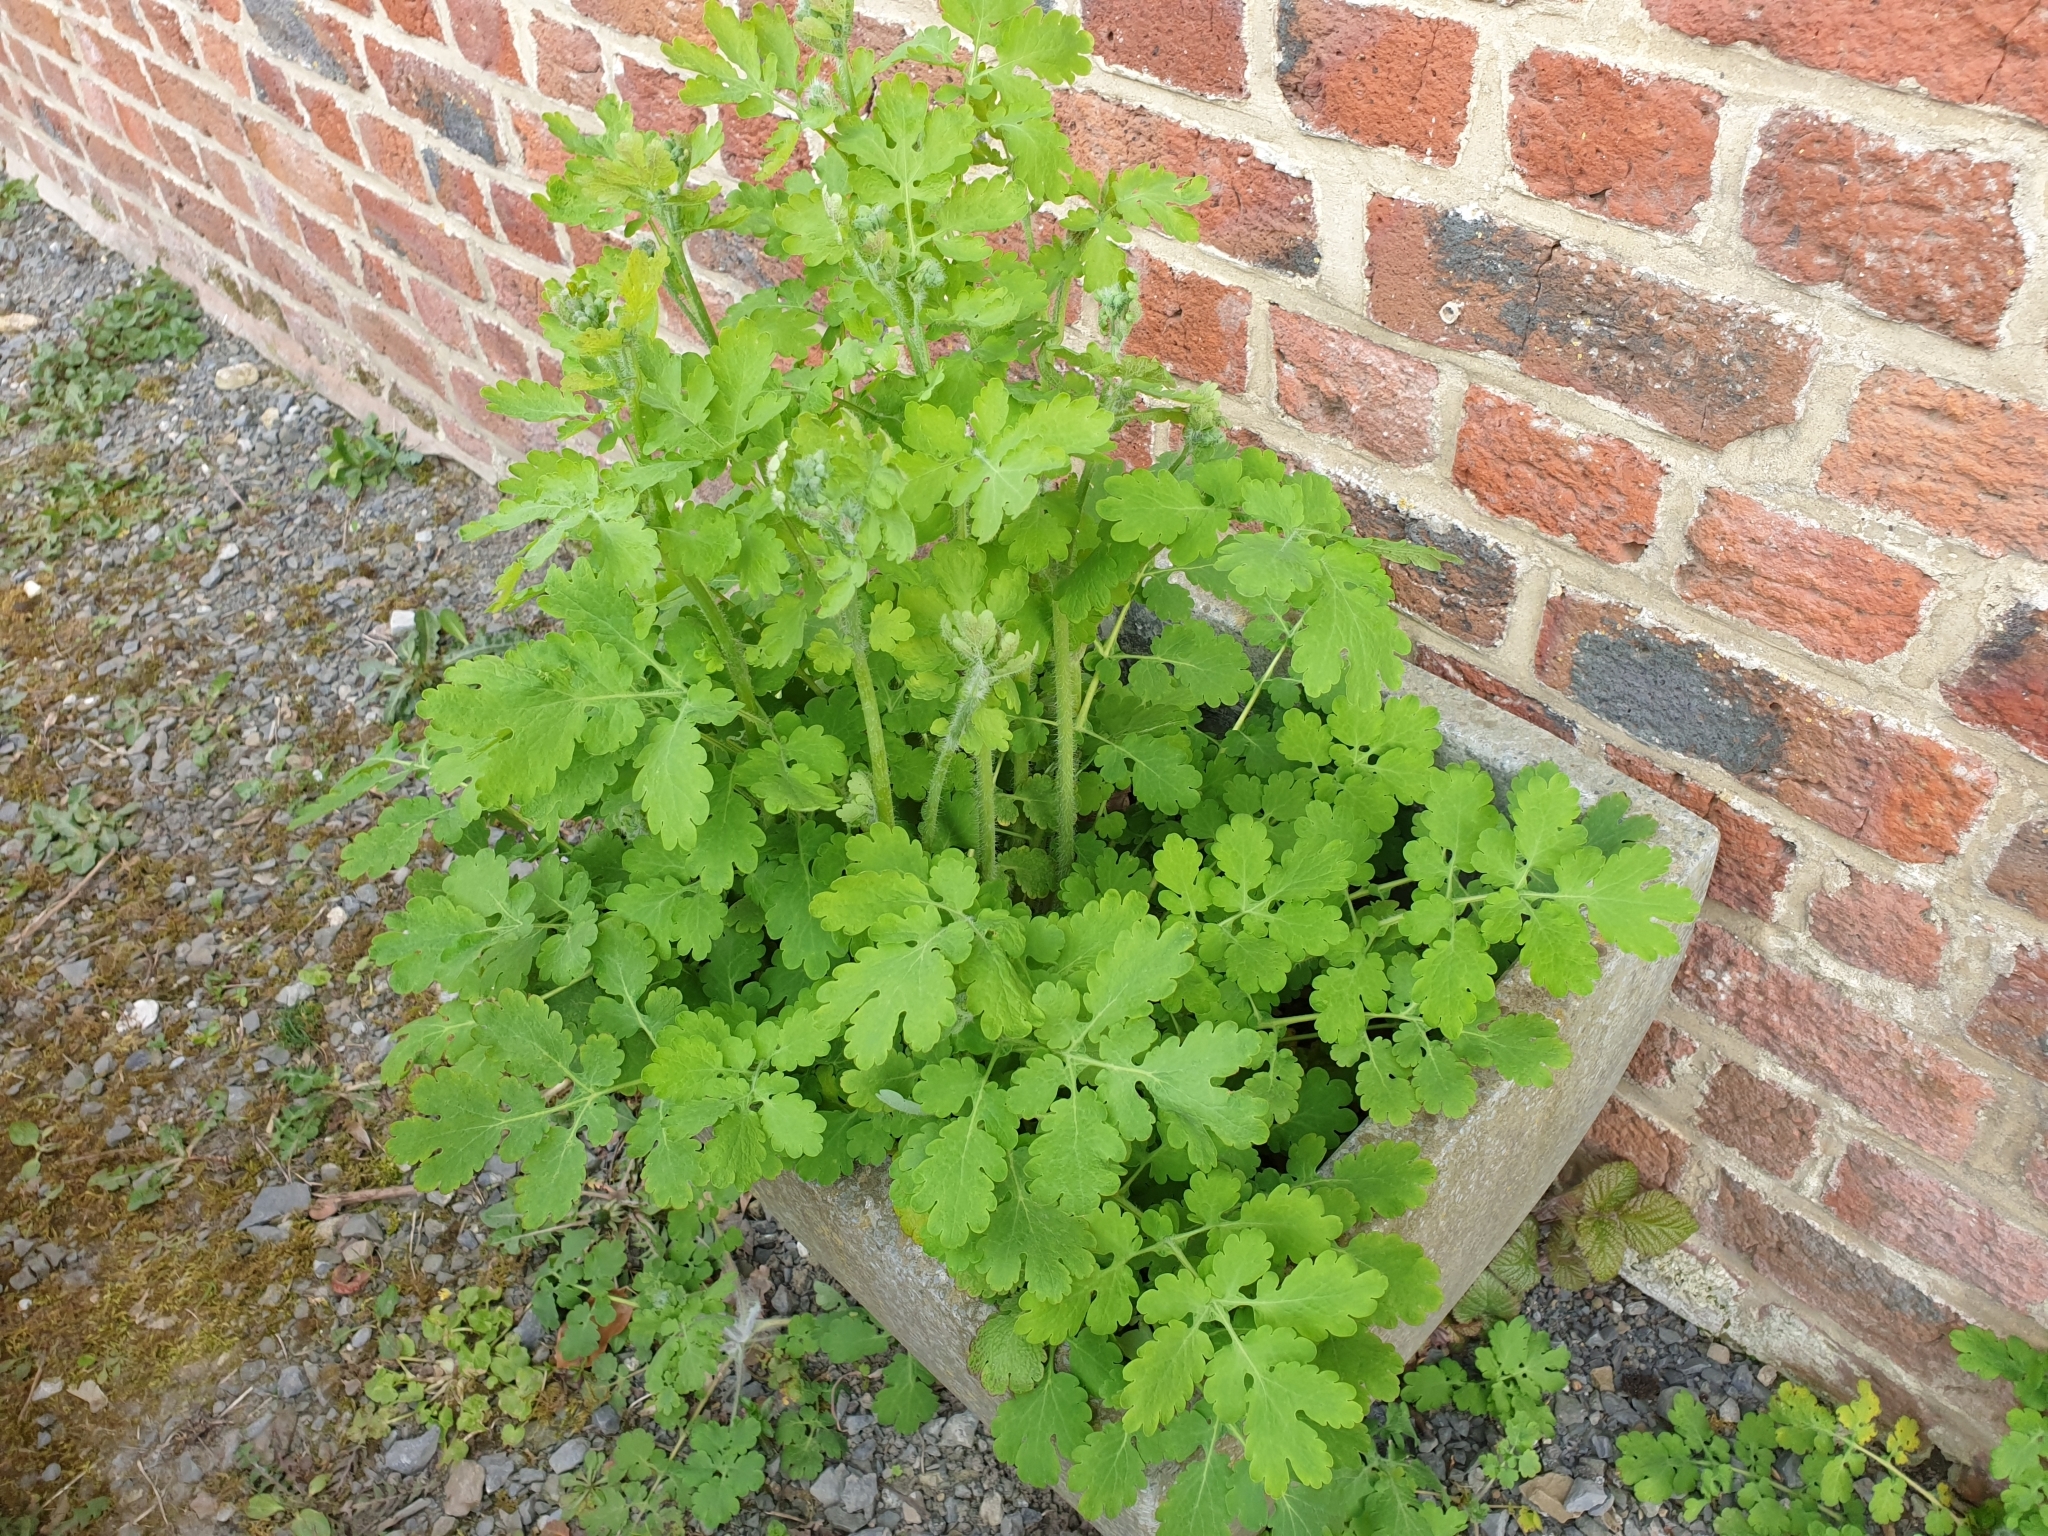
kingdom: Plantae
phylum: Tracheophyta
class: Magnoliopsida
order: Ranunculales
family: Papaveraceae
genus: Chelidonium
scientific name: Chelidonium majus
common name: Greater celandine
